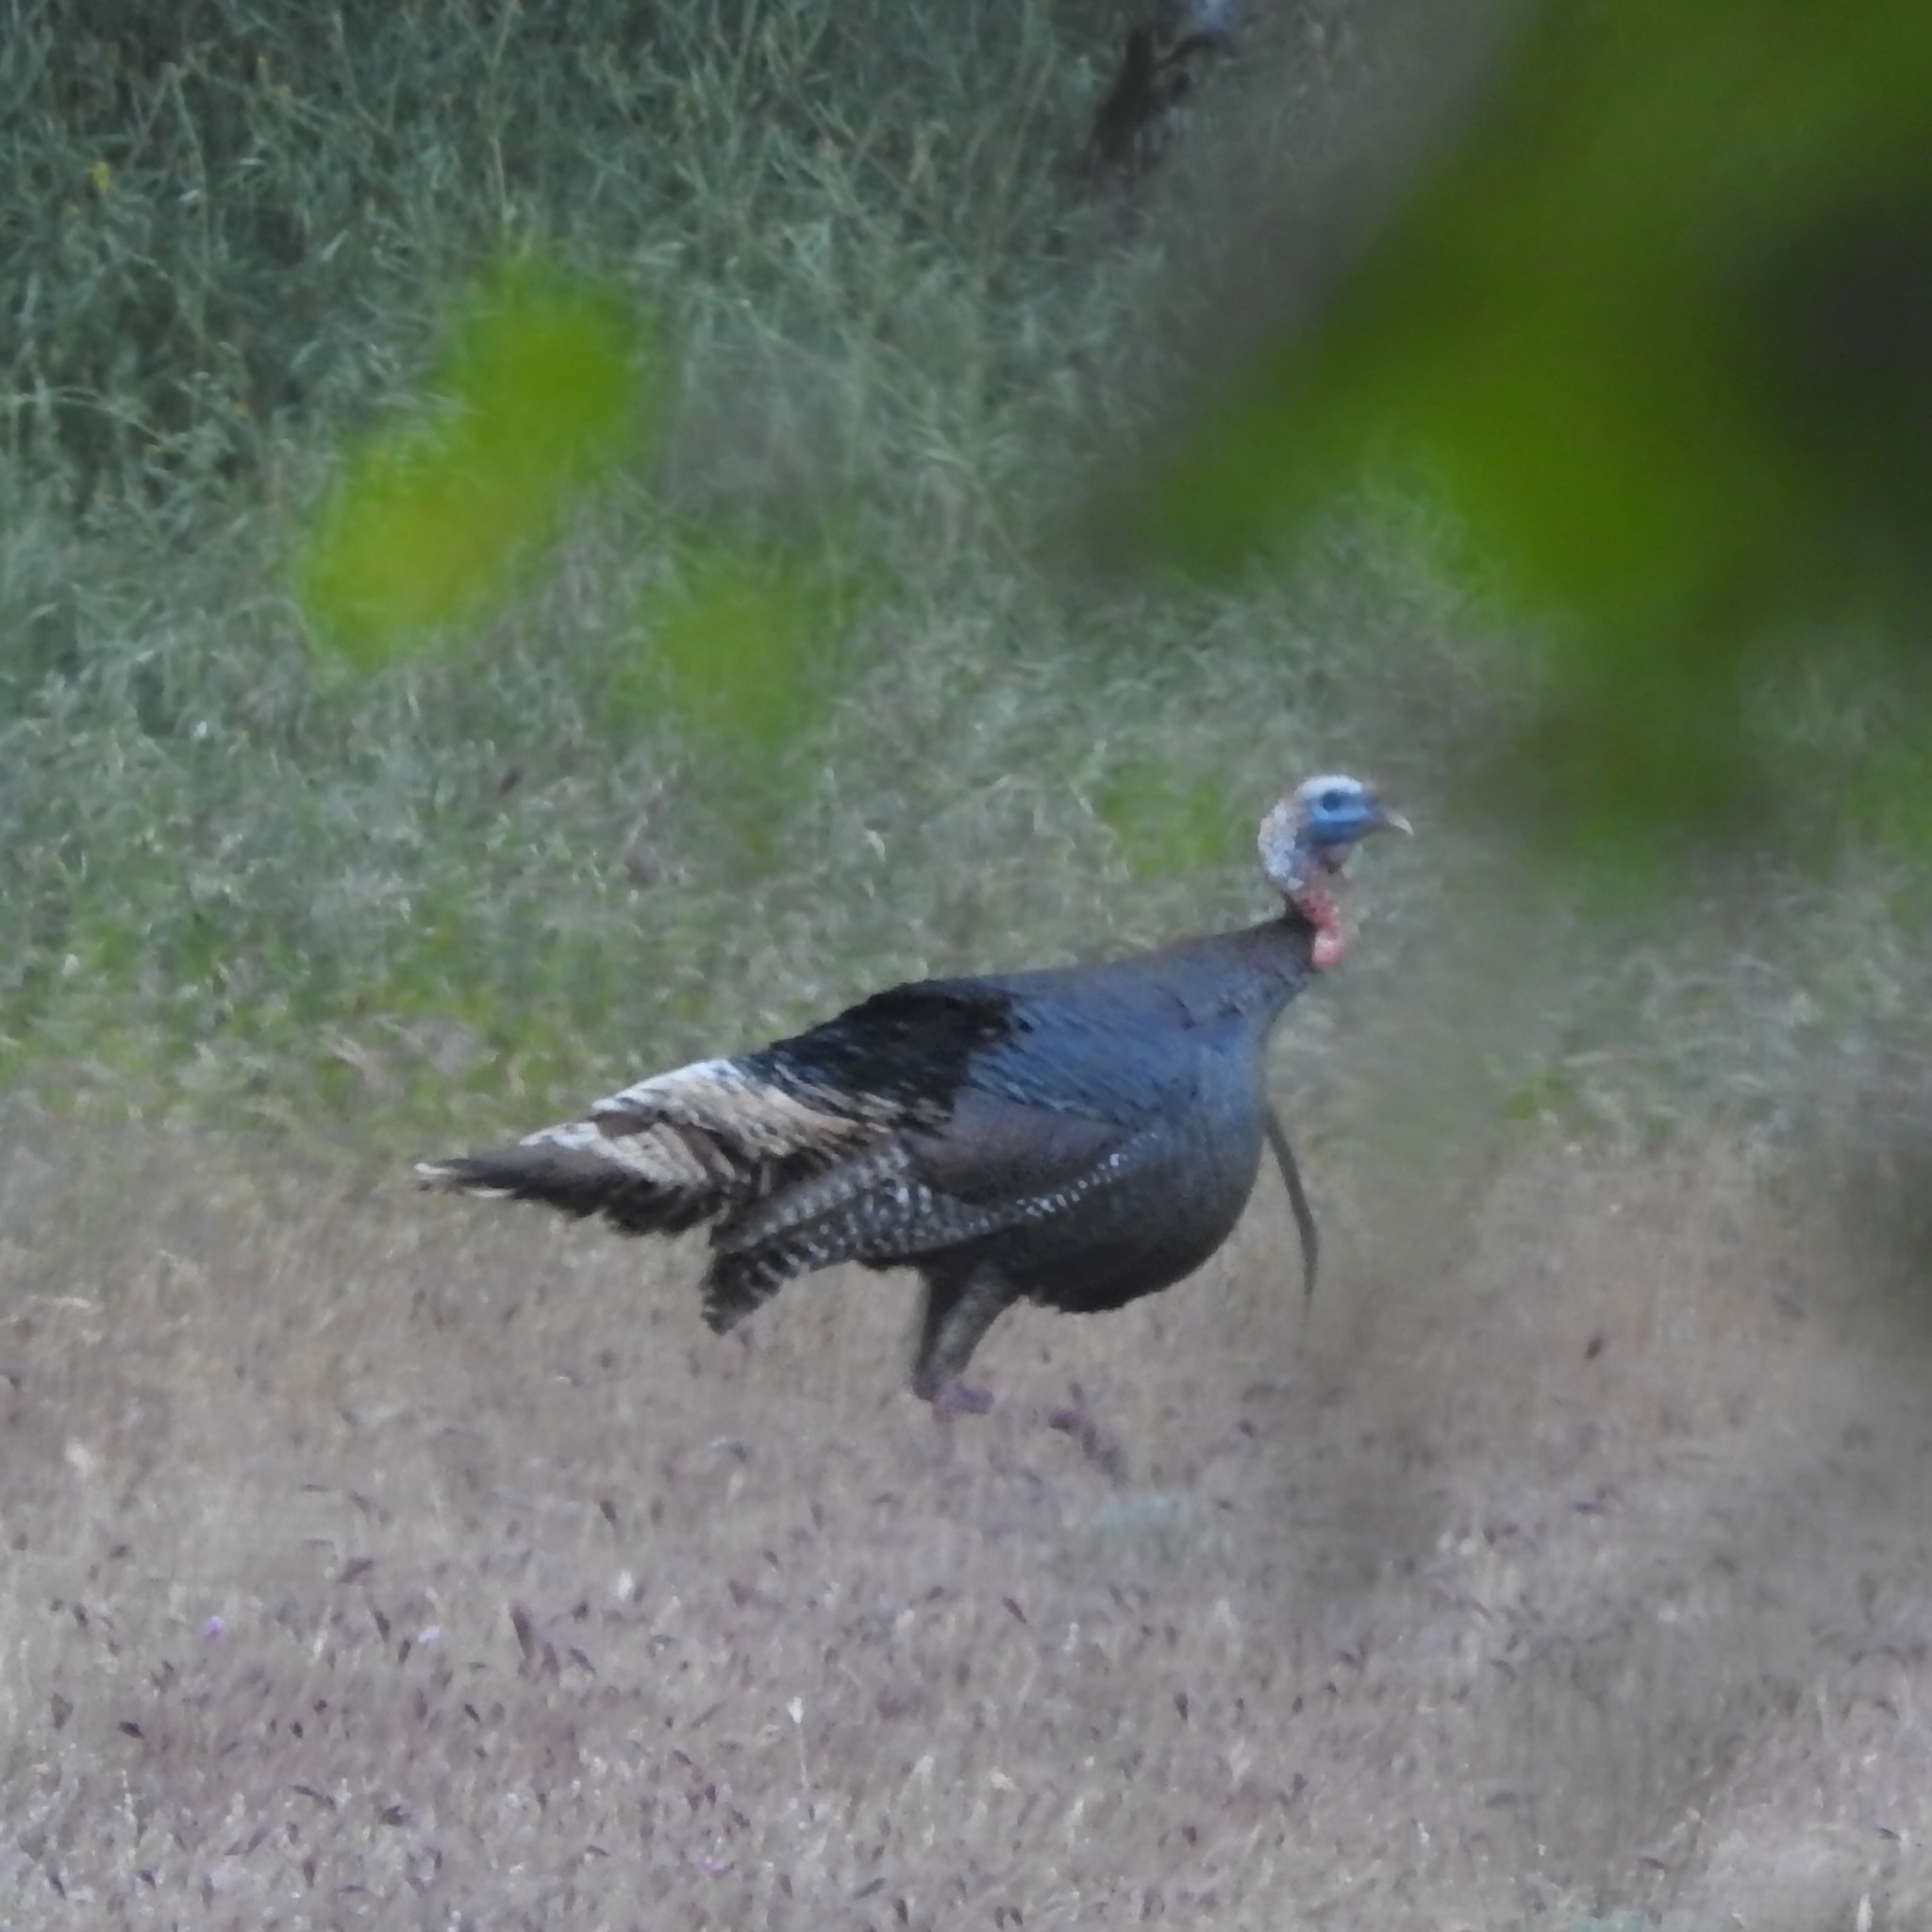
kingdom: Animalia
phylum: Chordata
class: Aves
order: Galliformes
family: Phasianidae
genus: Meleagris
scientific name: Meleagris gallopavo
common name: Wild turkey
